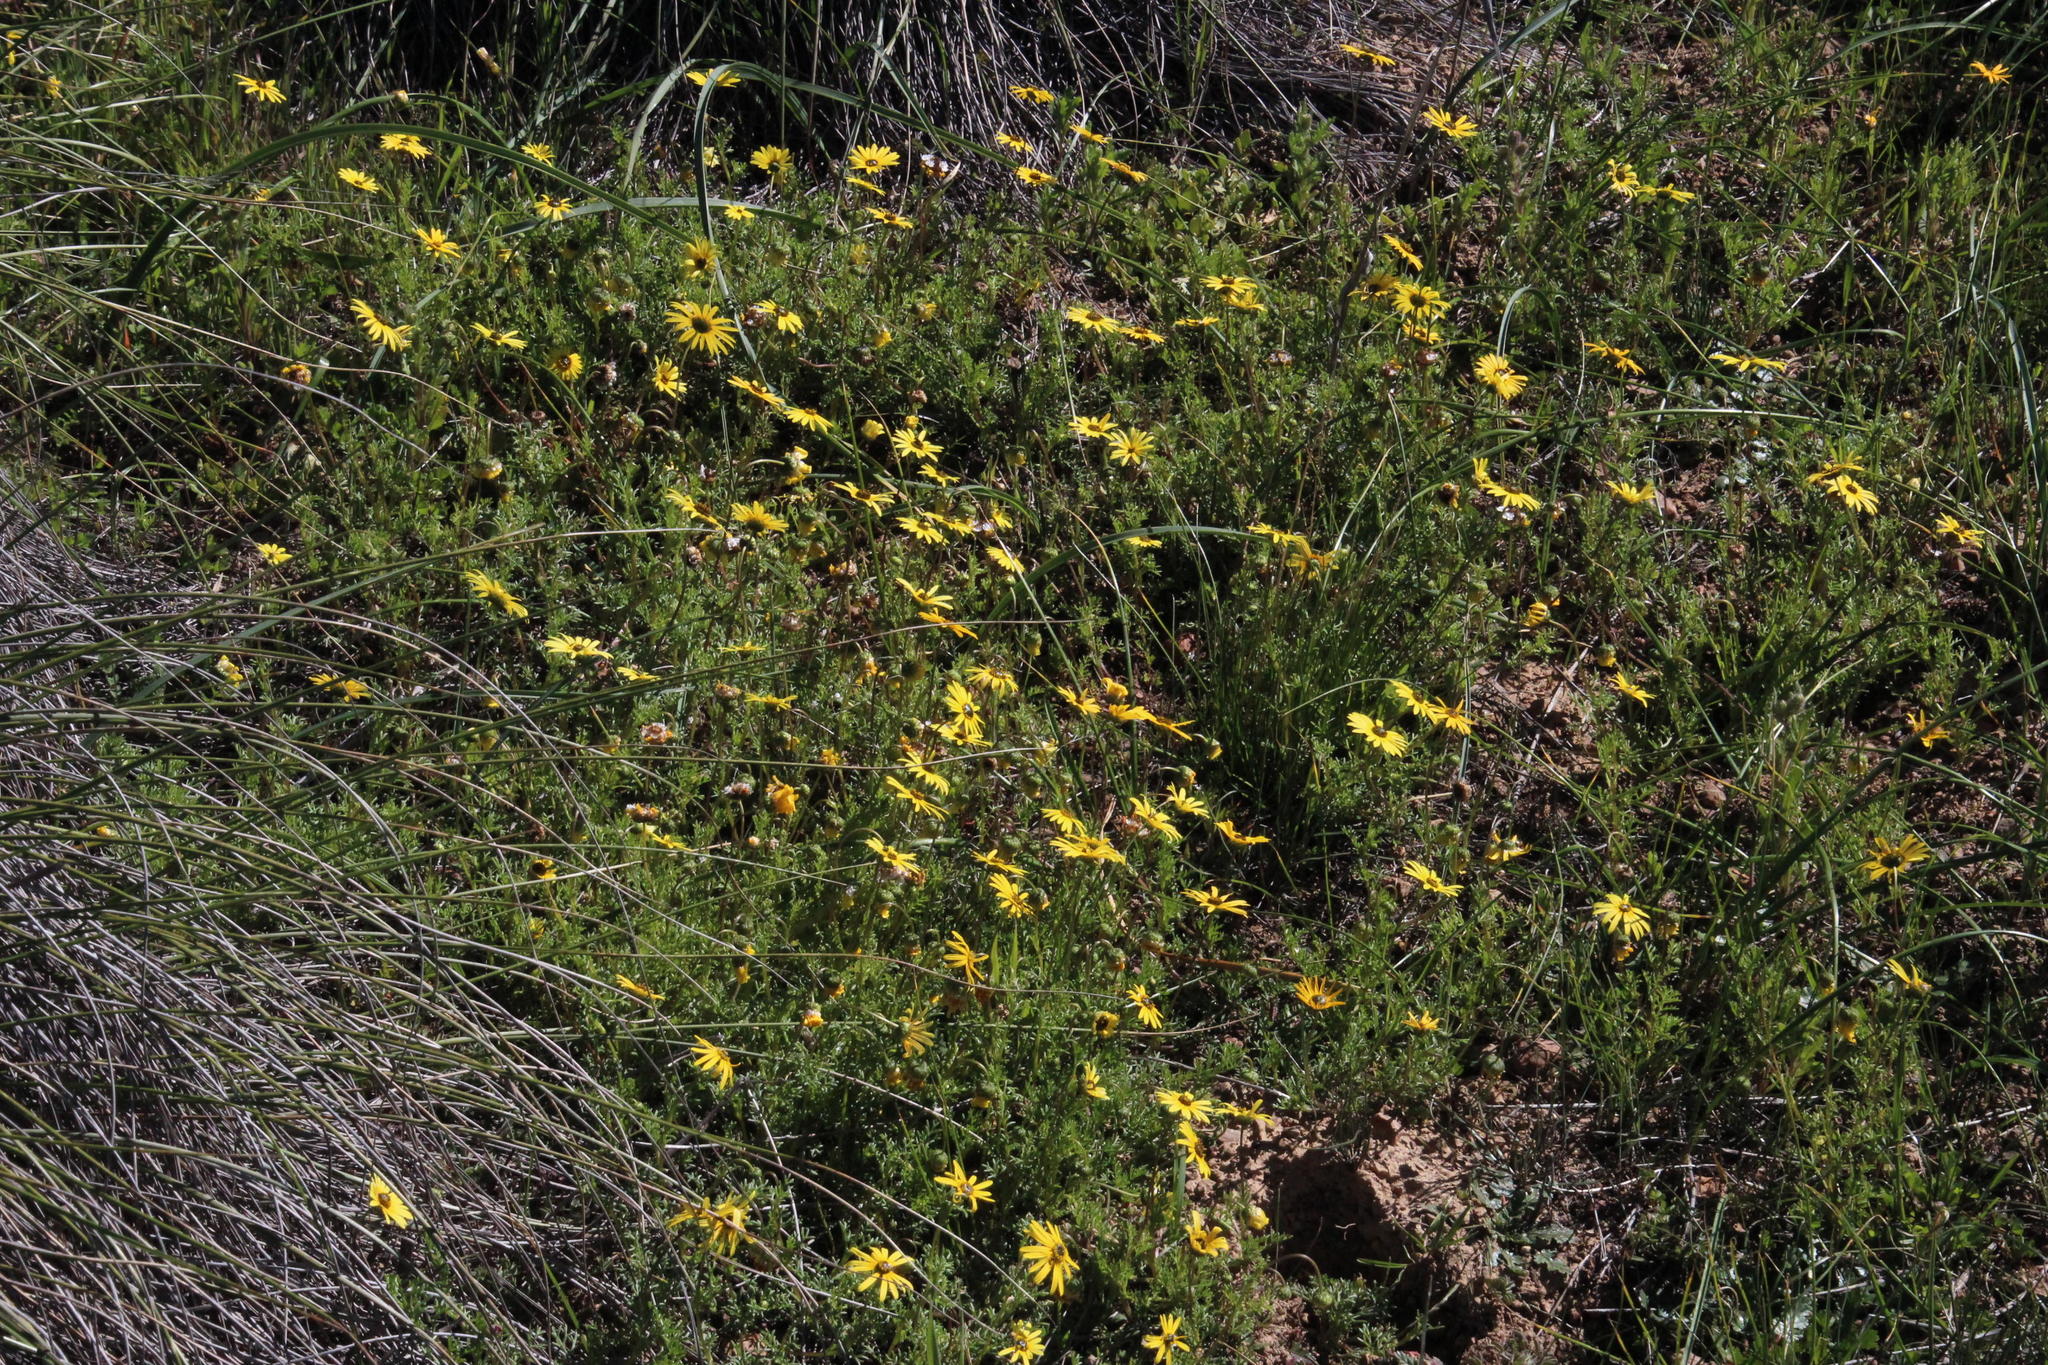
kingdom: Plantae
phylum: Tracheophyta
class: Magnoliopsida
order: Asterales
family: Asteraceae
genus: Ursinia
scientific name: Ursinia anthemoides
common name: Ursinia
